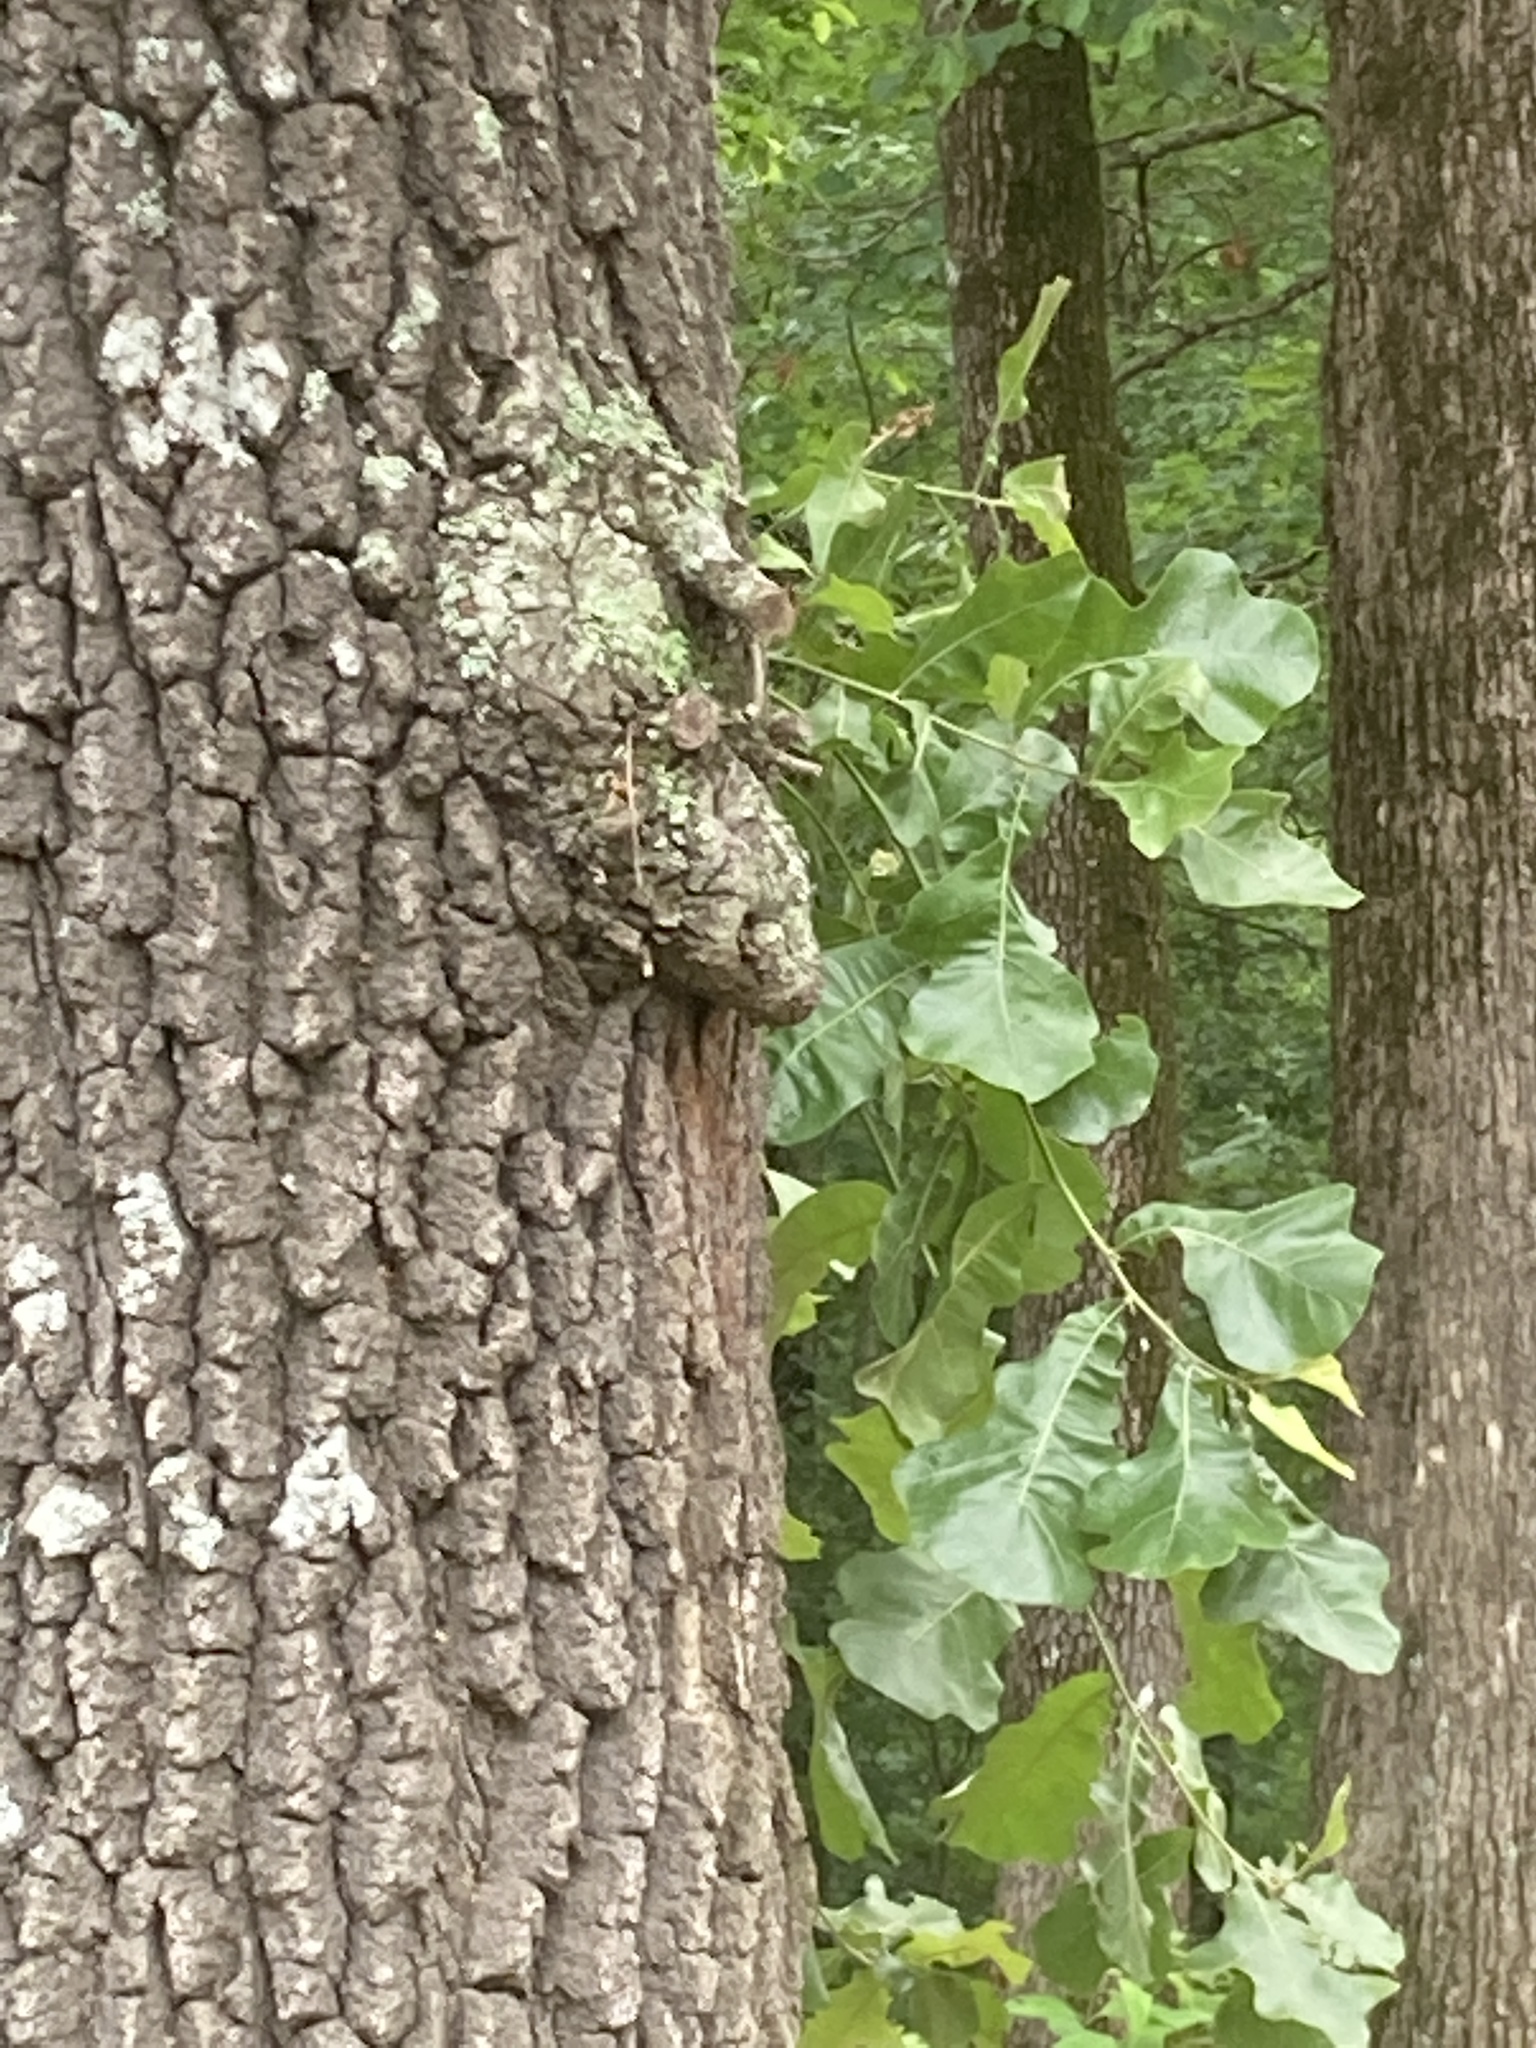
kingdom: Plantae
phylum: Tracheophyta
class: Magnoliopsida
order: Fagales
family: Fagaceae
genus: Quercus
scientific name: Quercus marilandica
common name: Blackjack oak
